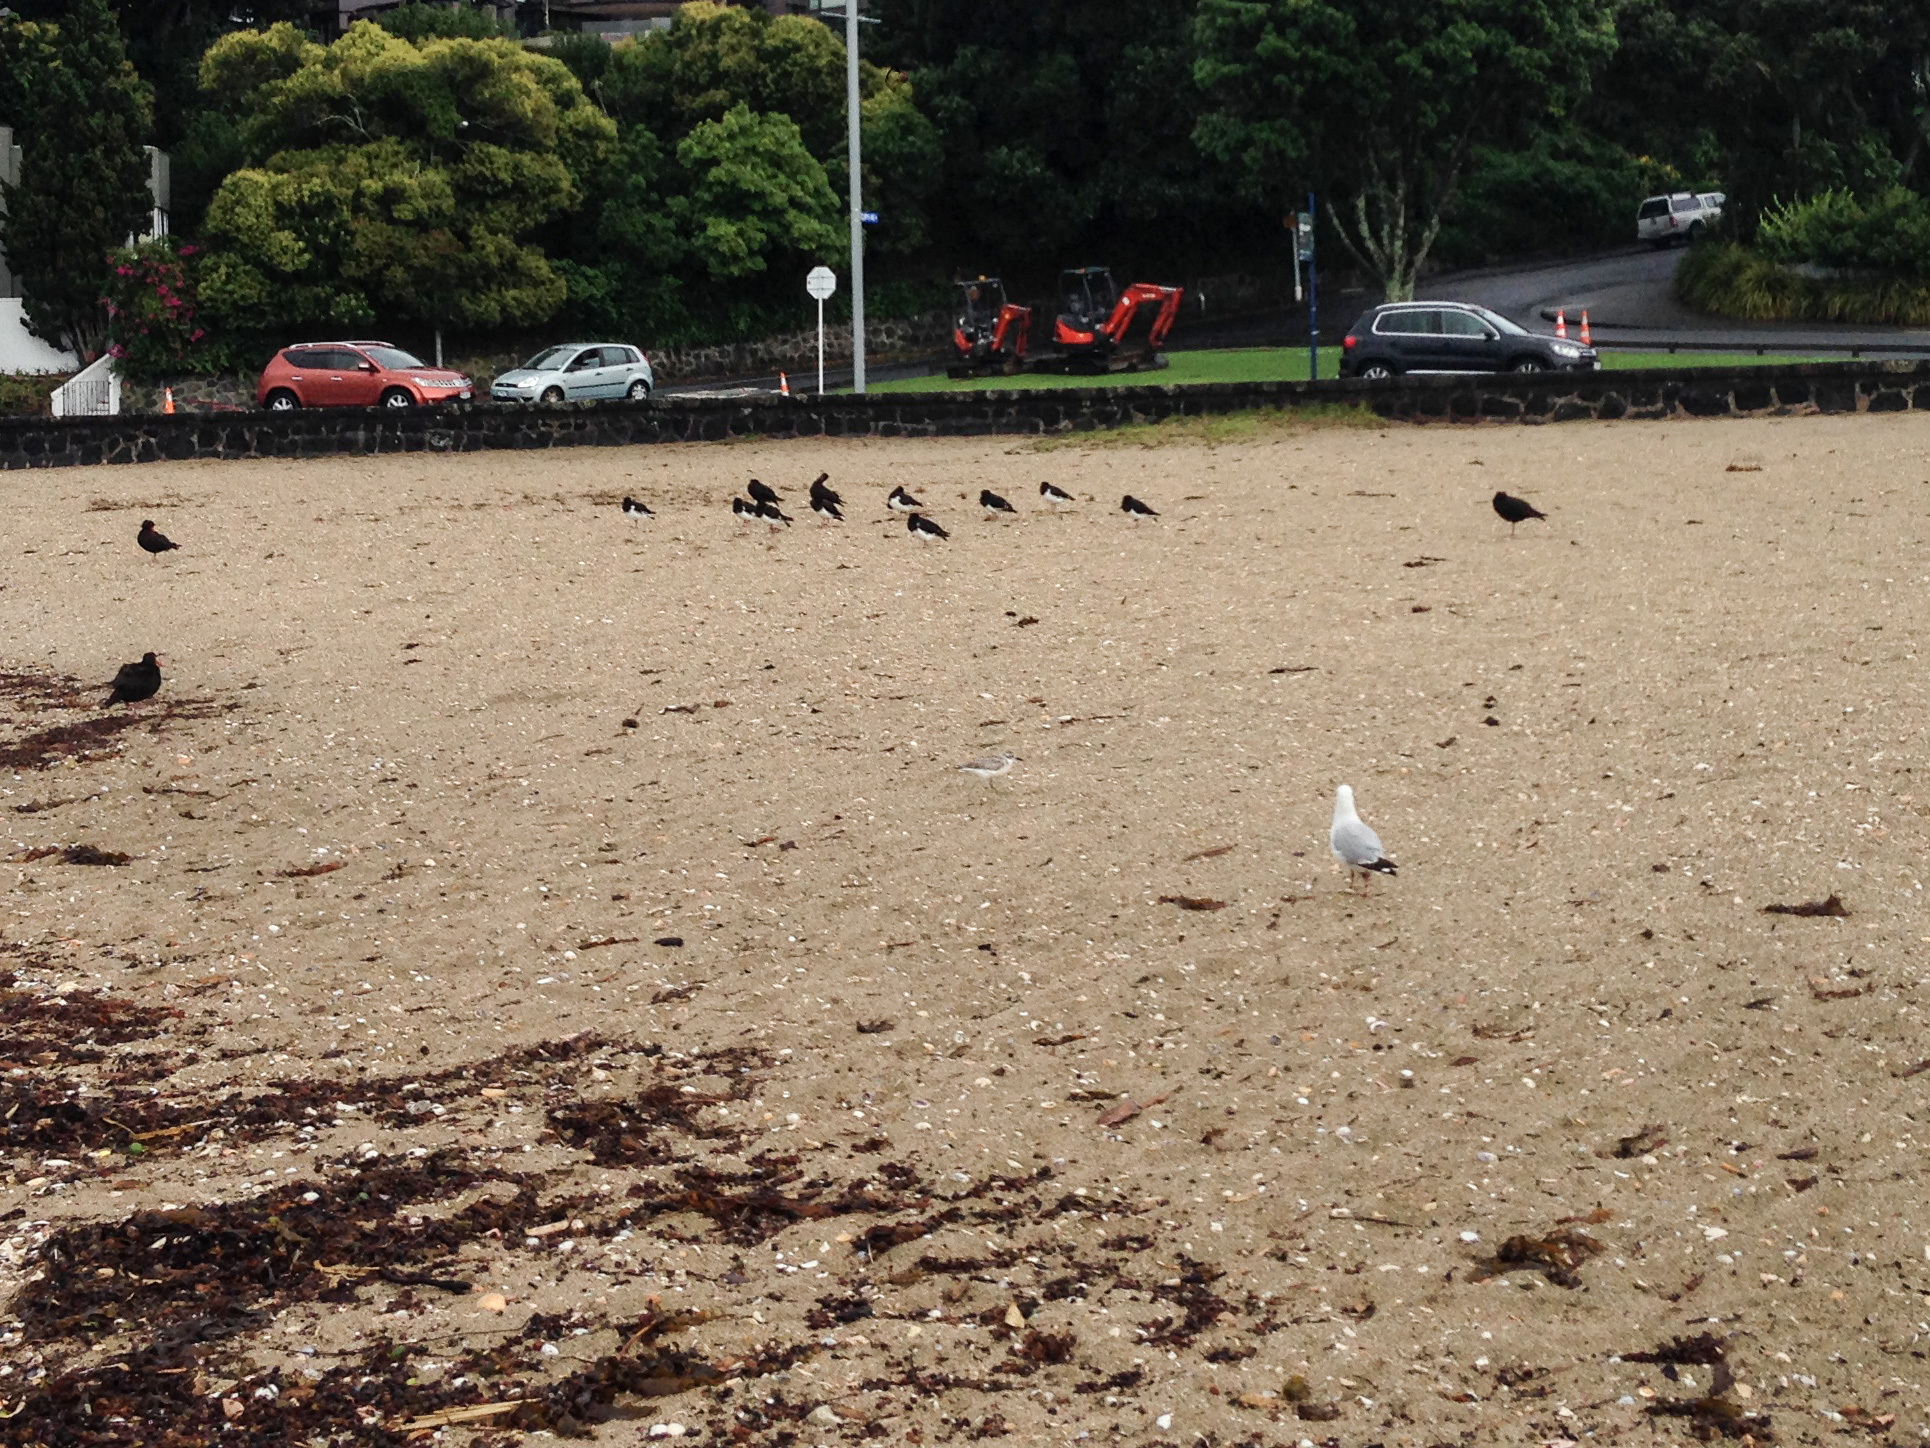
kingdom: Animalia
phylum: Chordata
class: Aves
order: Charadriiformes
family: Charadriidae
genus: Anarhynchus
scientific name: Anarhynchus
